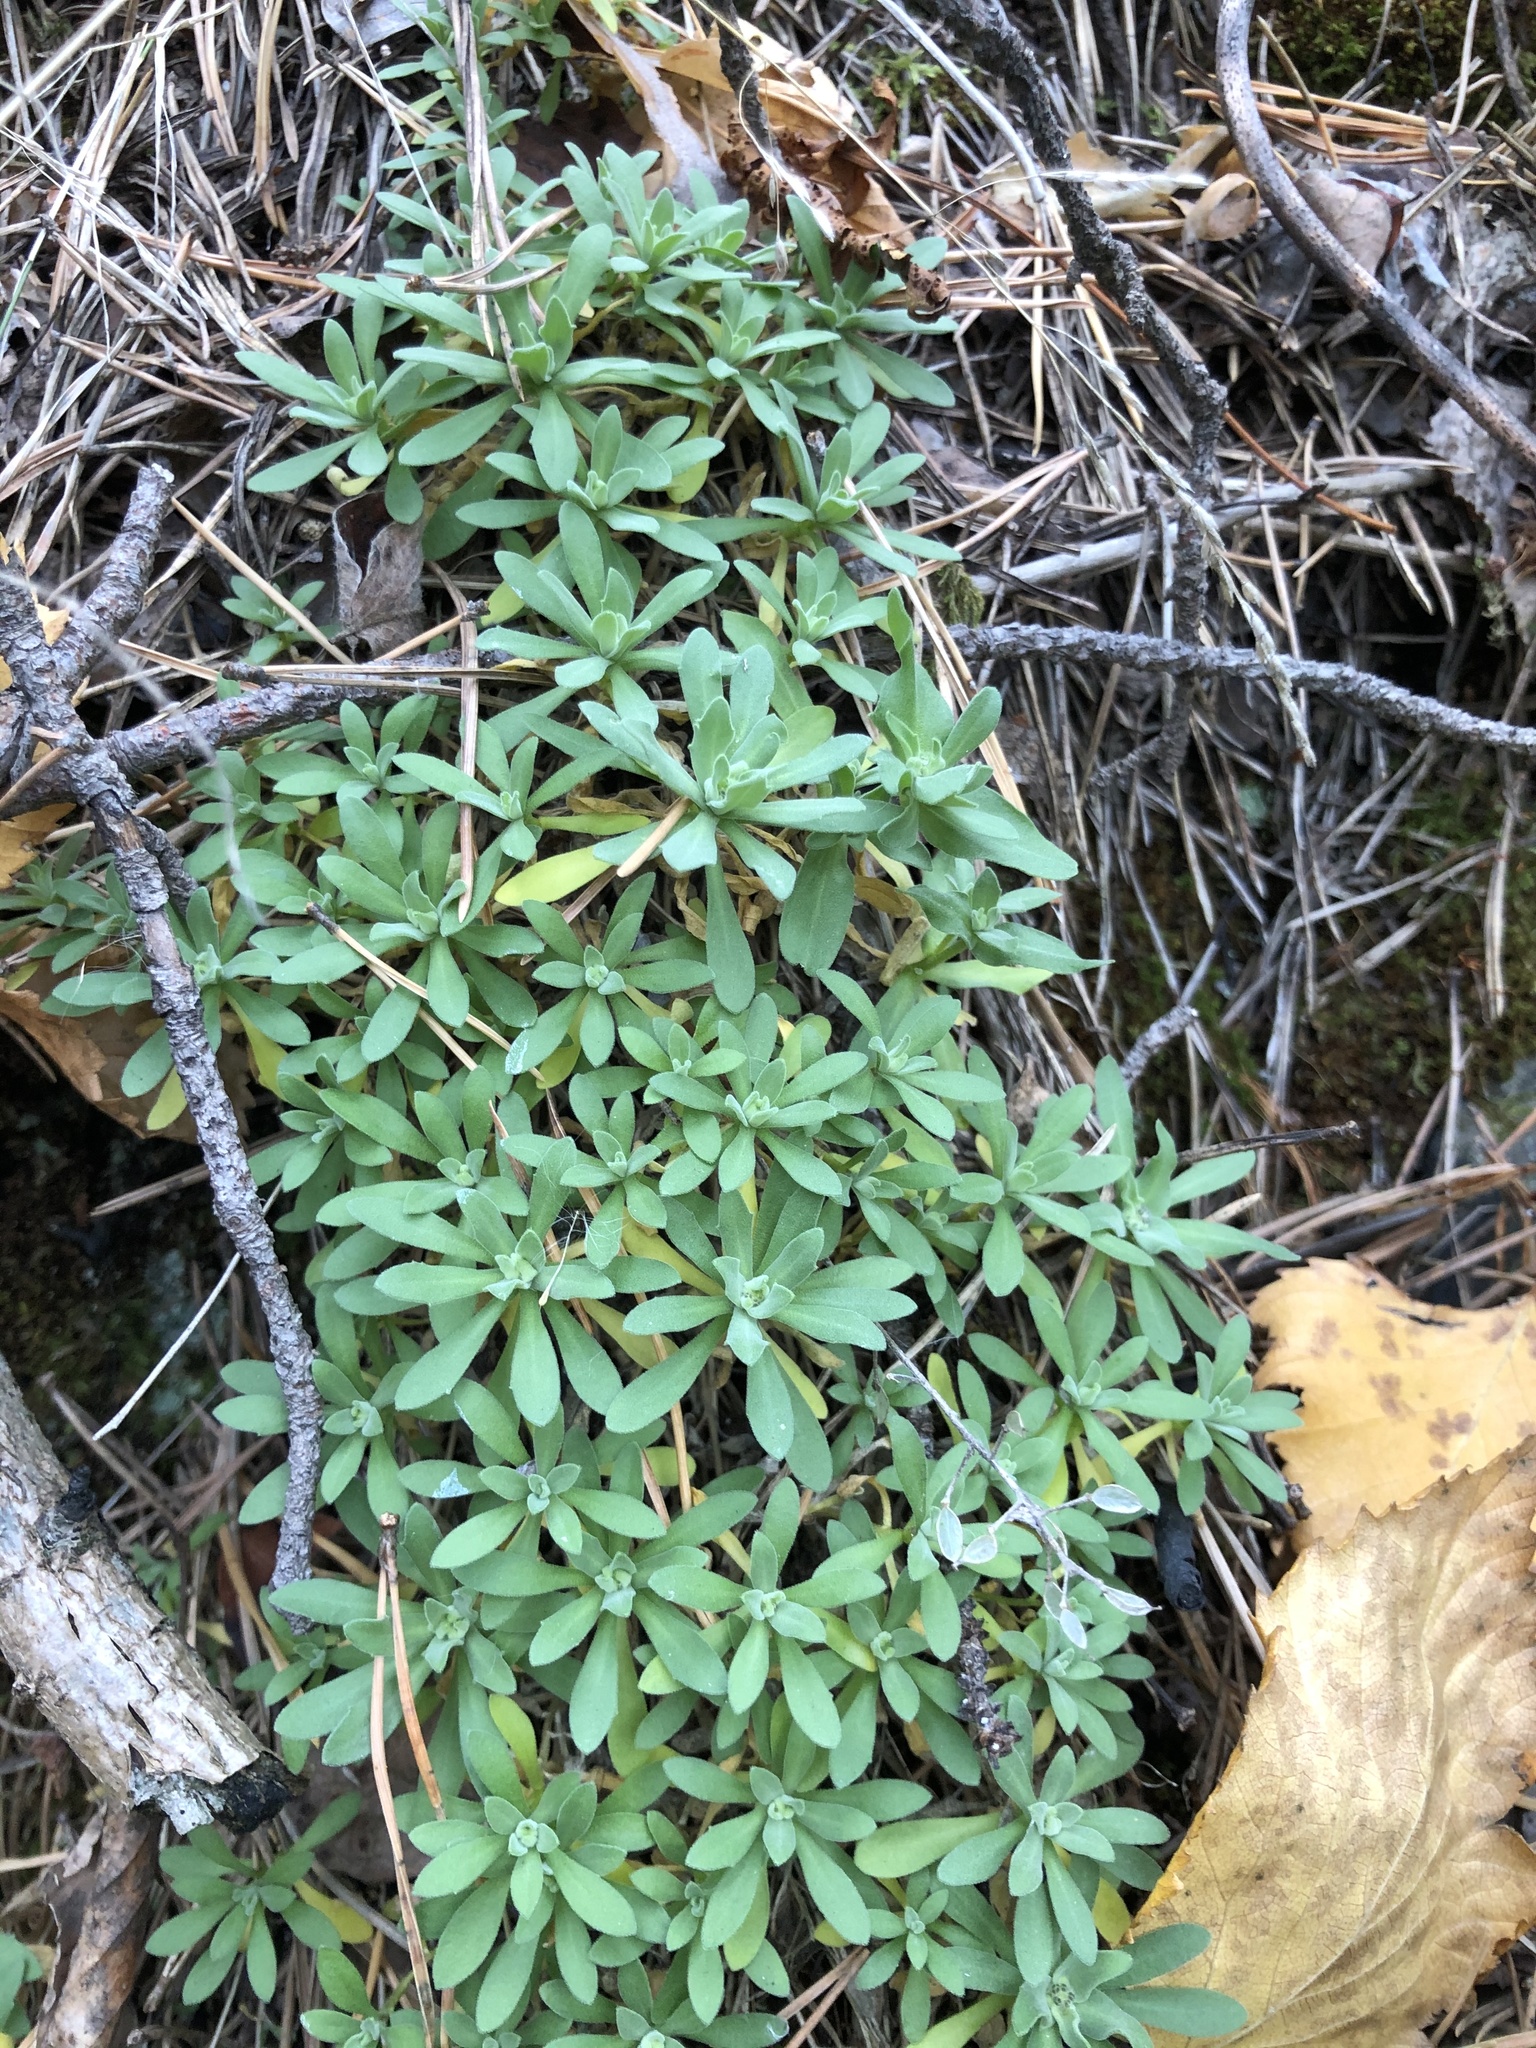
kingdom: Plantae
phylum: Tracheophyta
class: Magnoliopsida
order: Brassicales
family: Brassicaceae
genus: Draba
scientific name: Draba hyperborea
